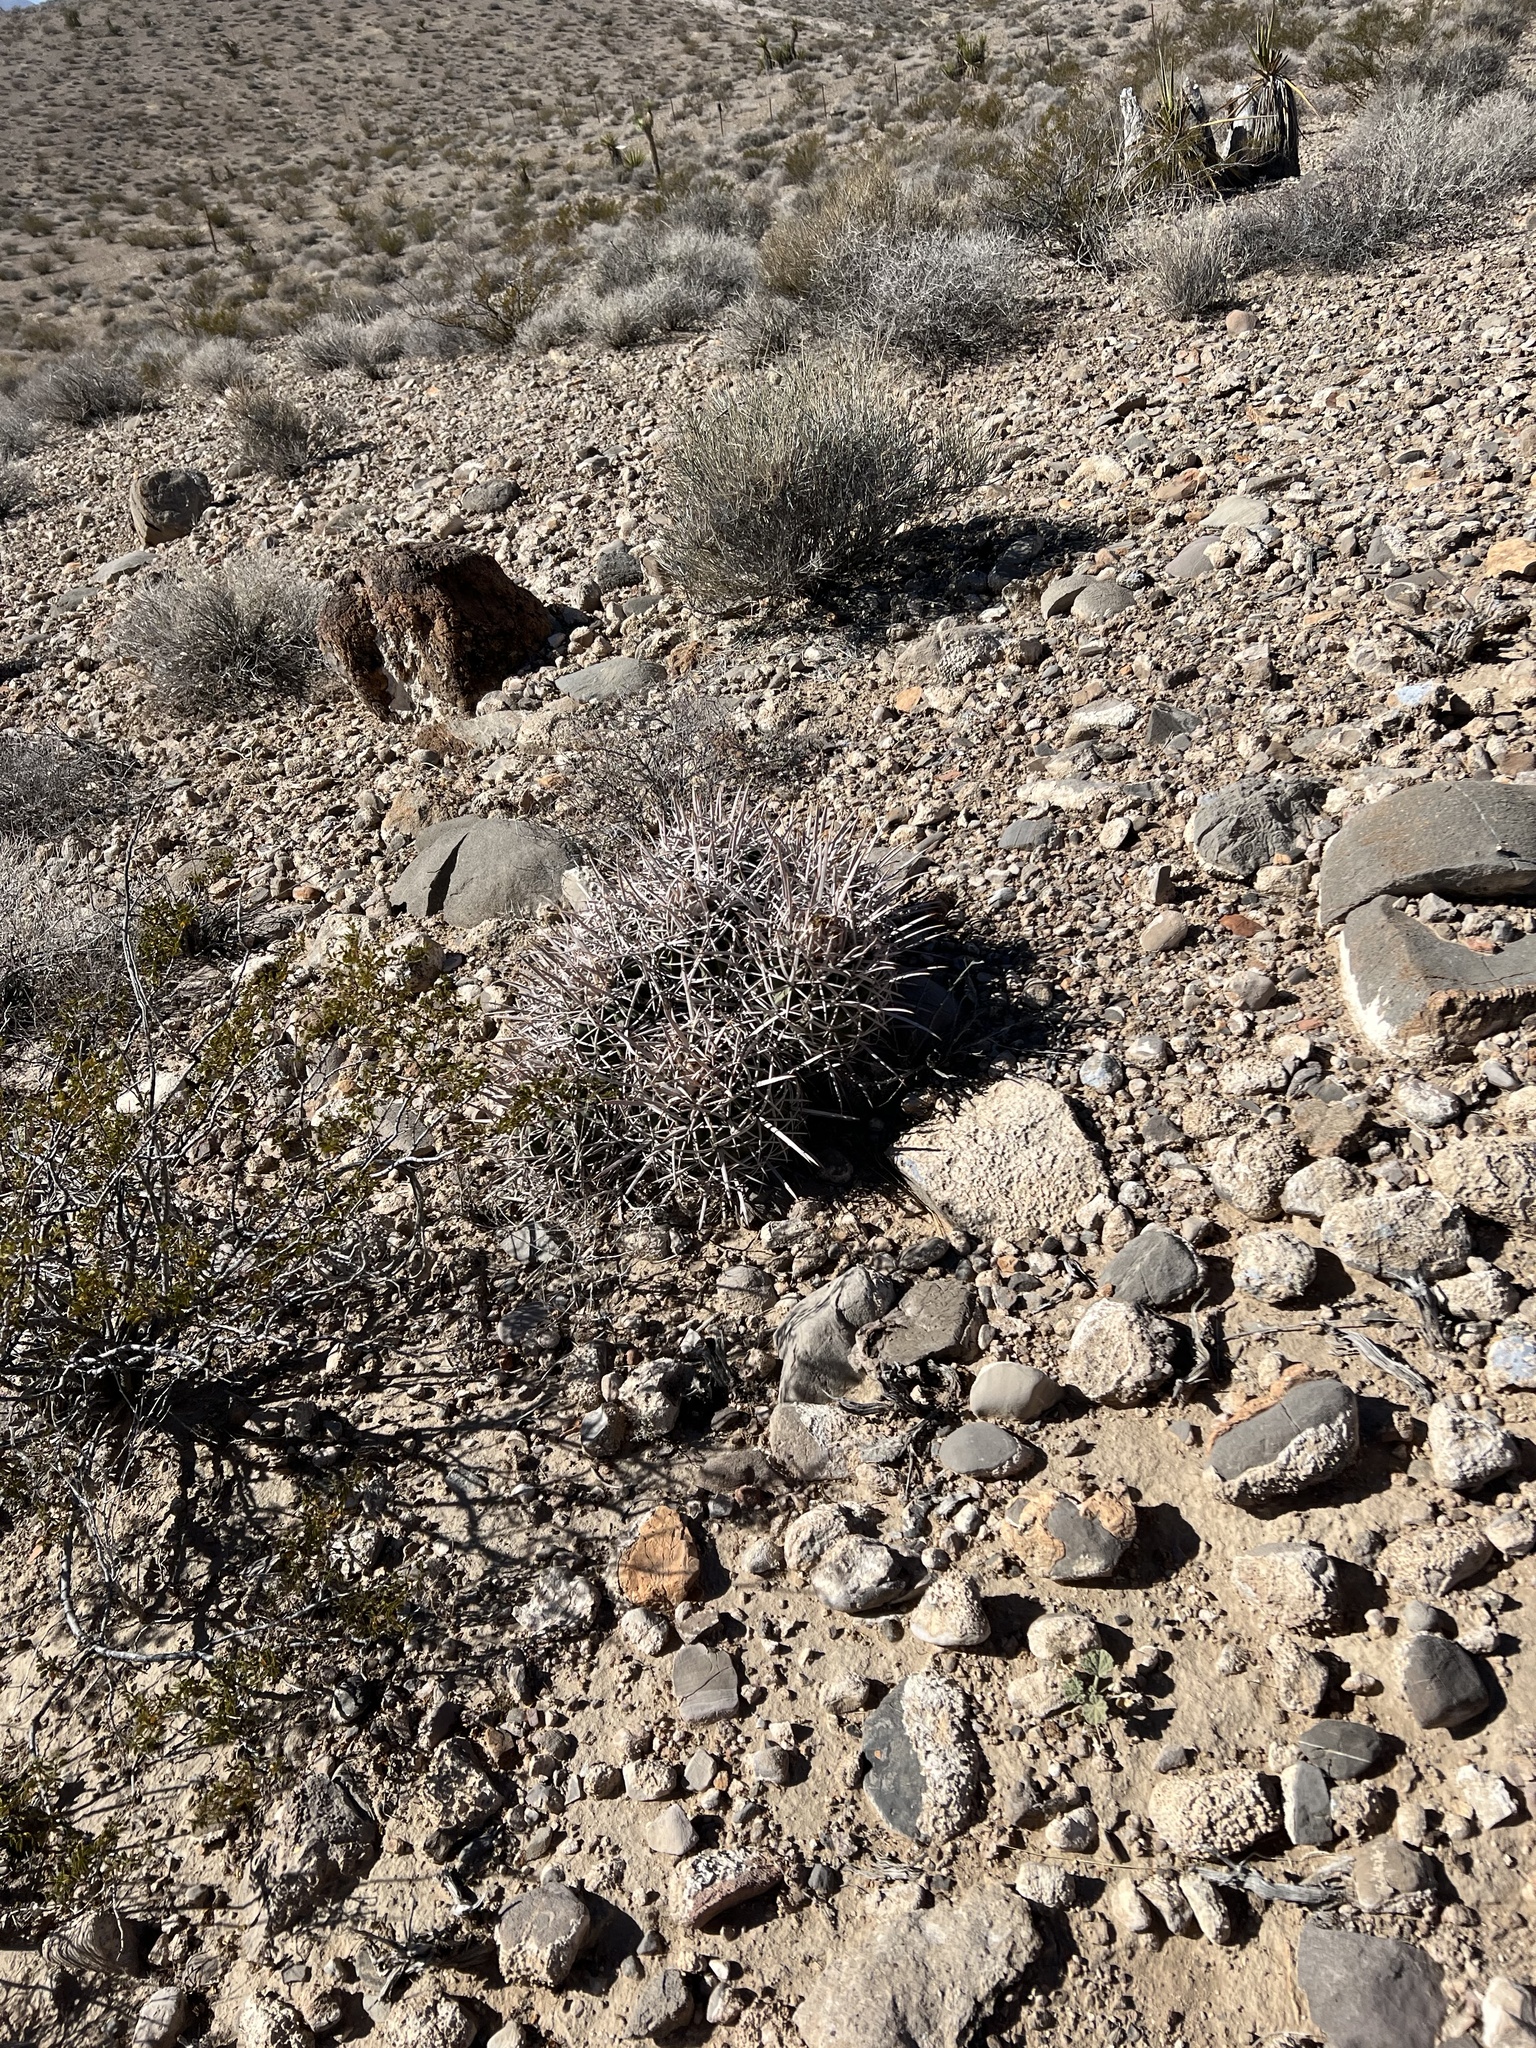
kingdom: Plantae
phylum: Tracheophyta
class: Magnoliopsida
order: Caryophyllales
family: Cactaceae
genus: Echinocactus
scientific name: Echinocactus polycephalus
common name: Cottontop cactus
